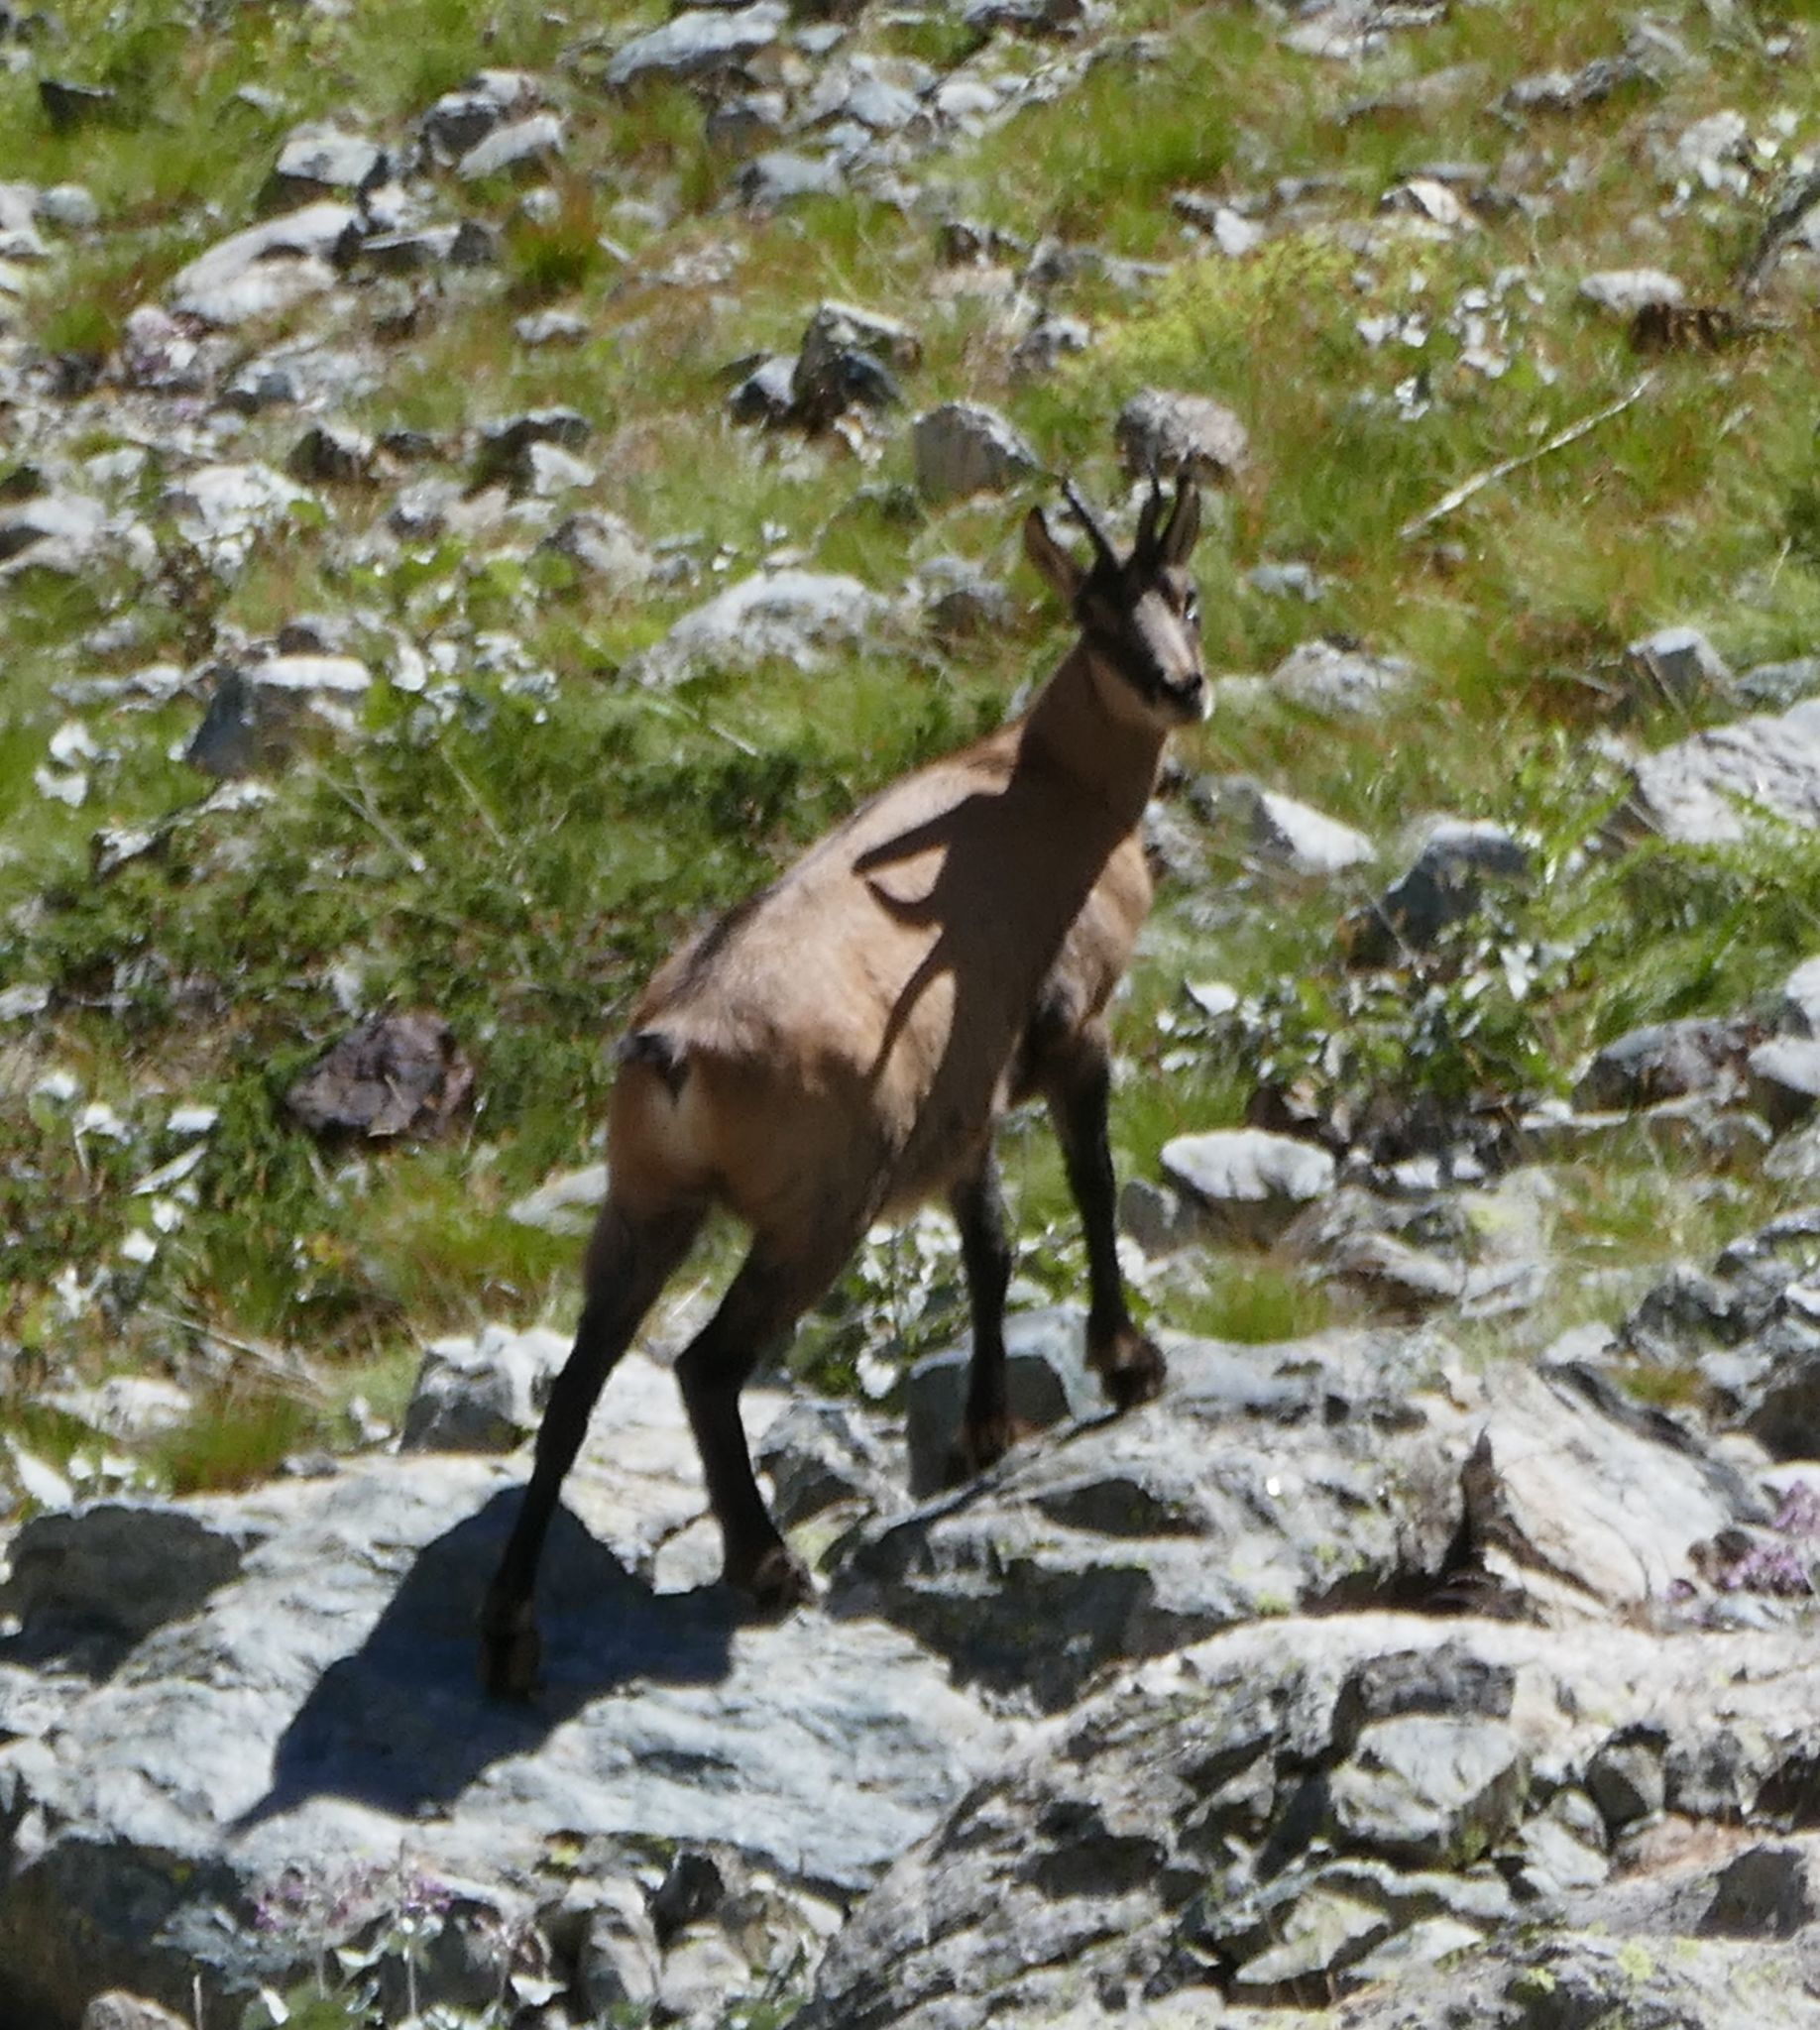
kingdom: Animalia
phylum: Chordata
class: Mammalia
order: Artiodactyla
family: Bovidae
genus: Rupicapra
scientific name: Rupicapra rupicapra
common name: Chamois
